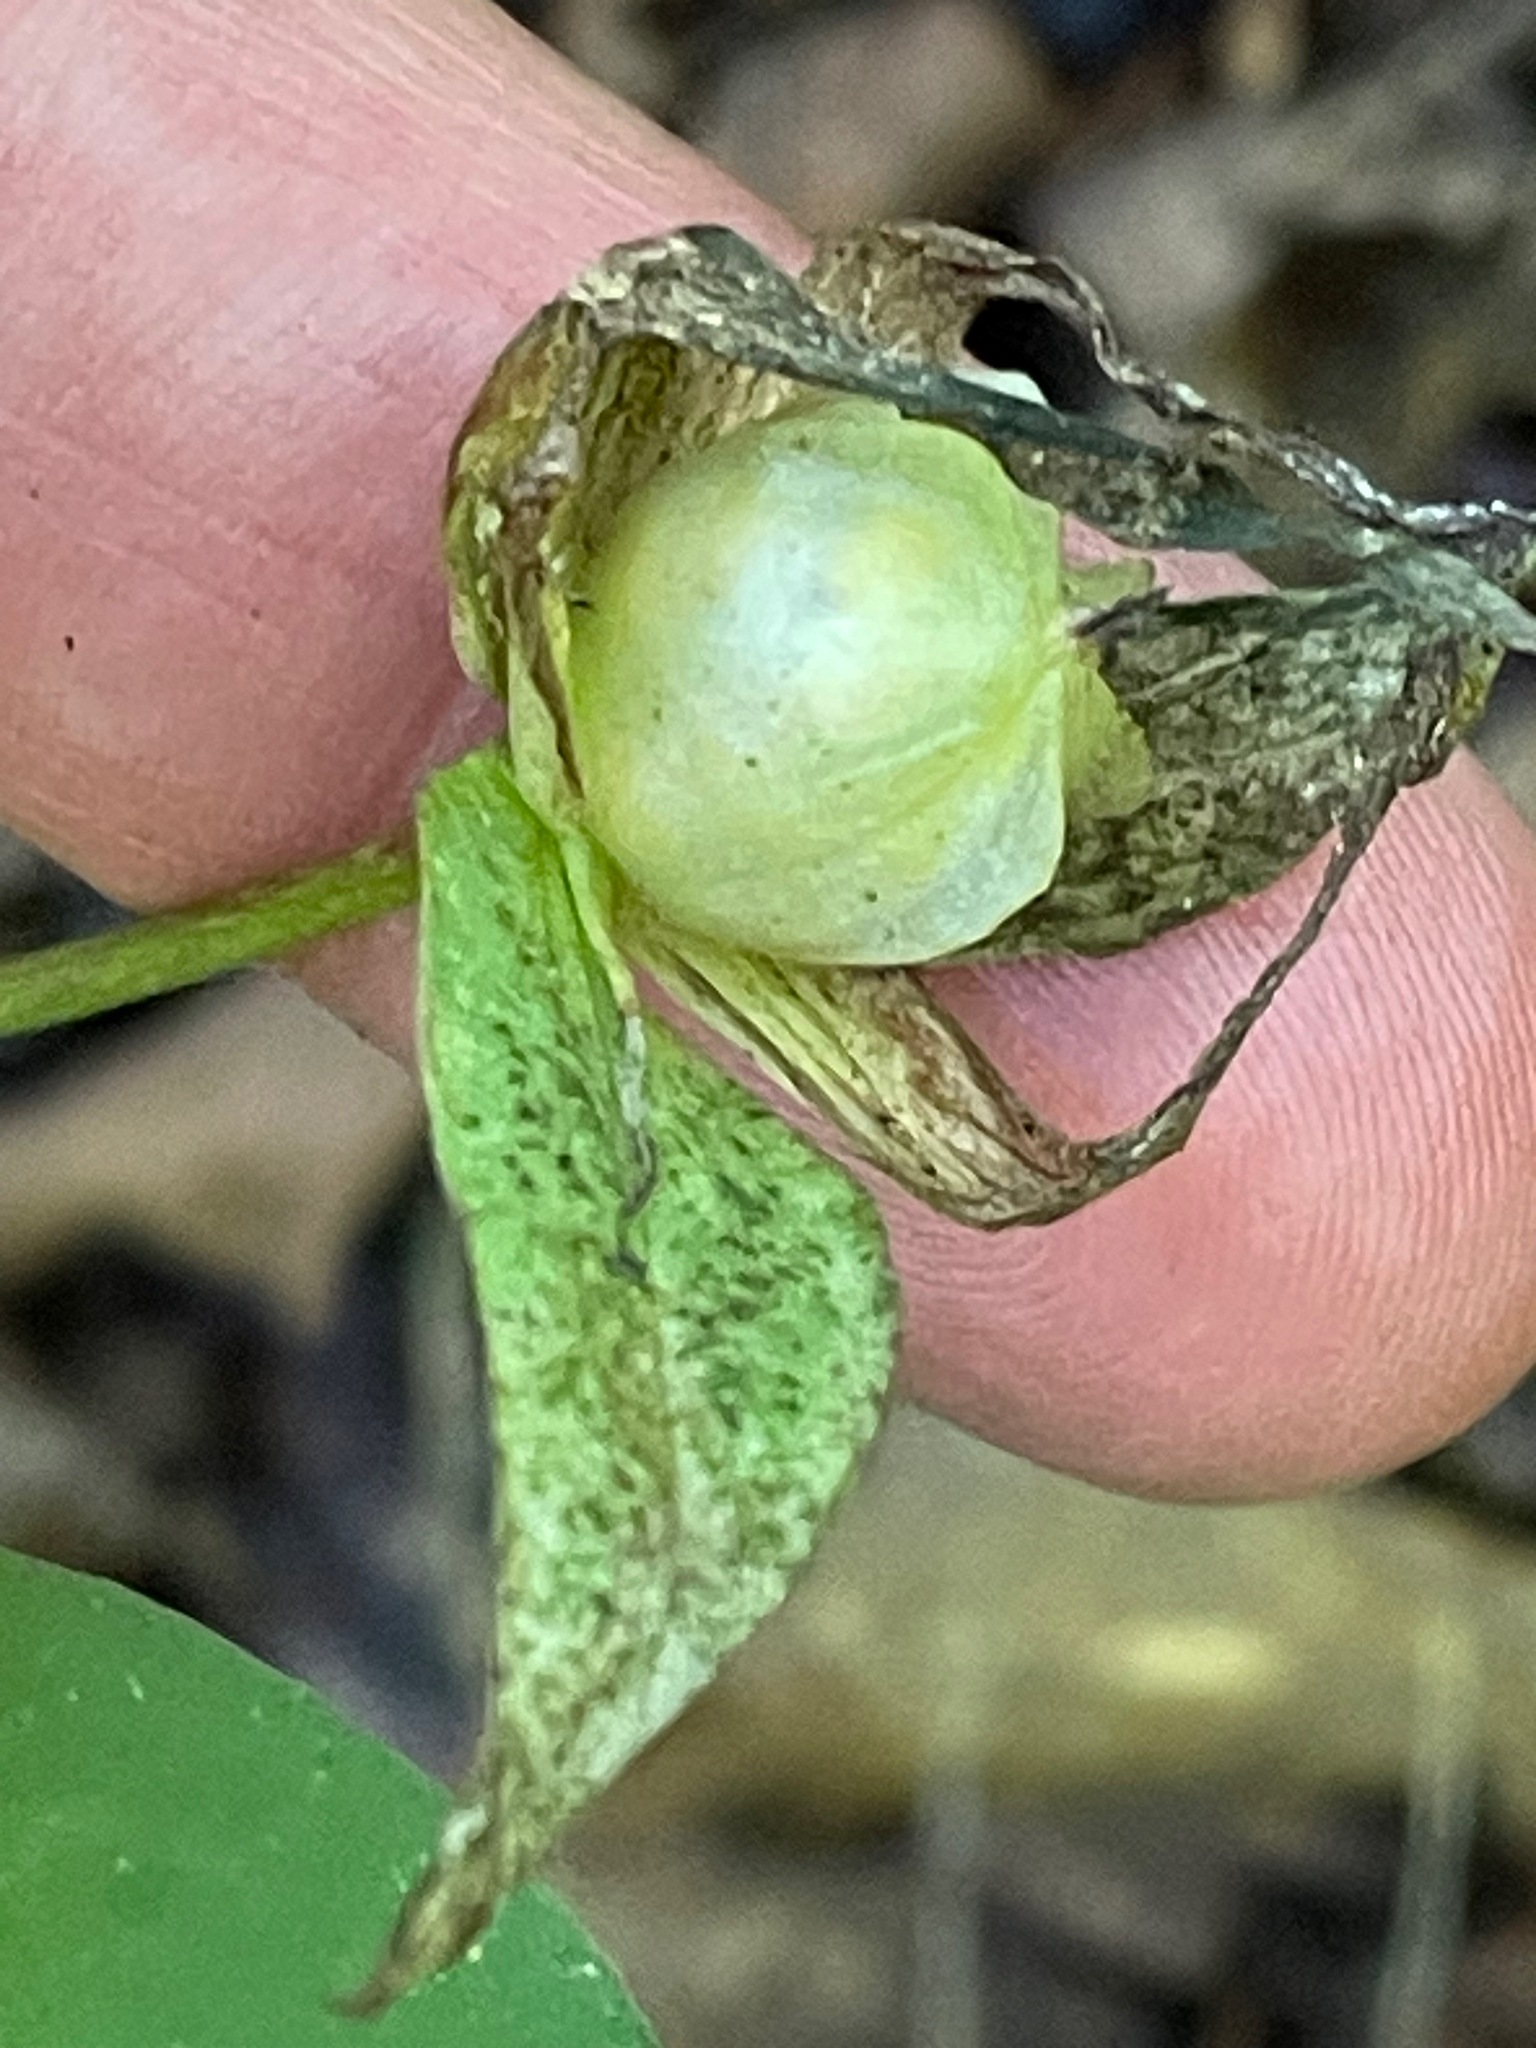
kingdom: Plantae
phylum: Tracheophyta
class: Liliopsida
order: Liliales
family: Melanthiaceae
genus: Trillium
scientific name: Trillium grandiflorum
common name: Great white trillium
